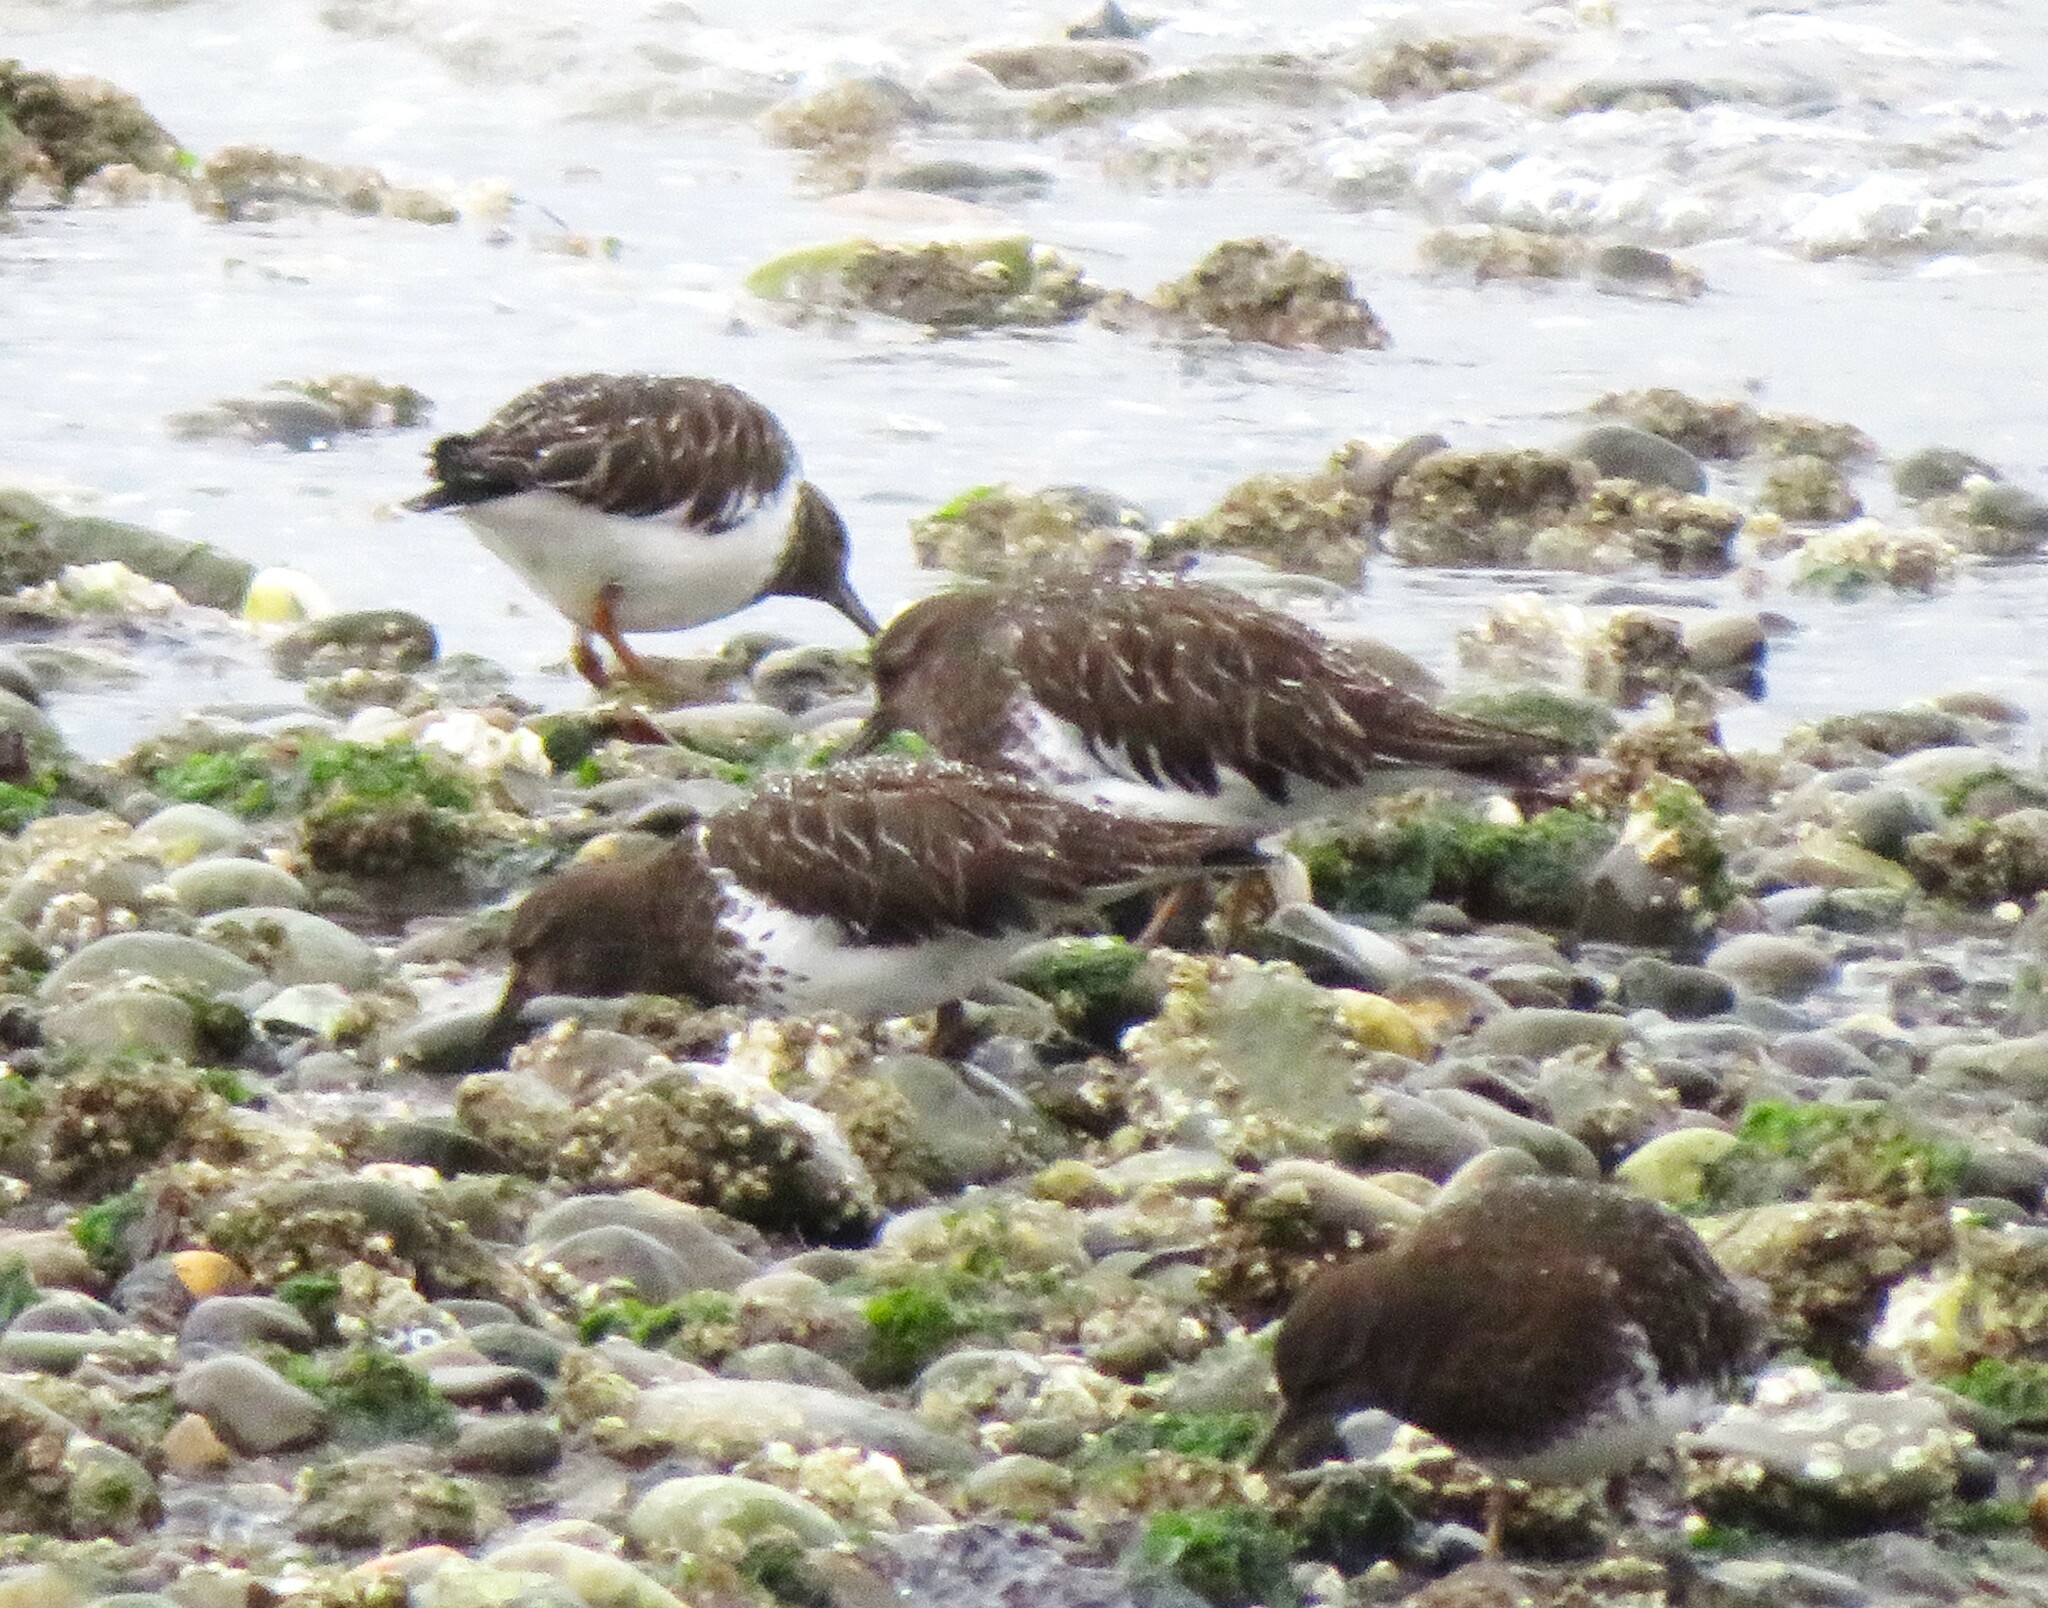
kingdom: Animalia
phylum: Chordata
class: Aves
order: Charadriiformes
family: Scolopacidae
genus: Arenaria
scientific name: Arenaria melanocephala
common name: Black turnstone
